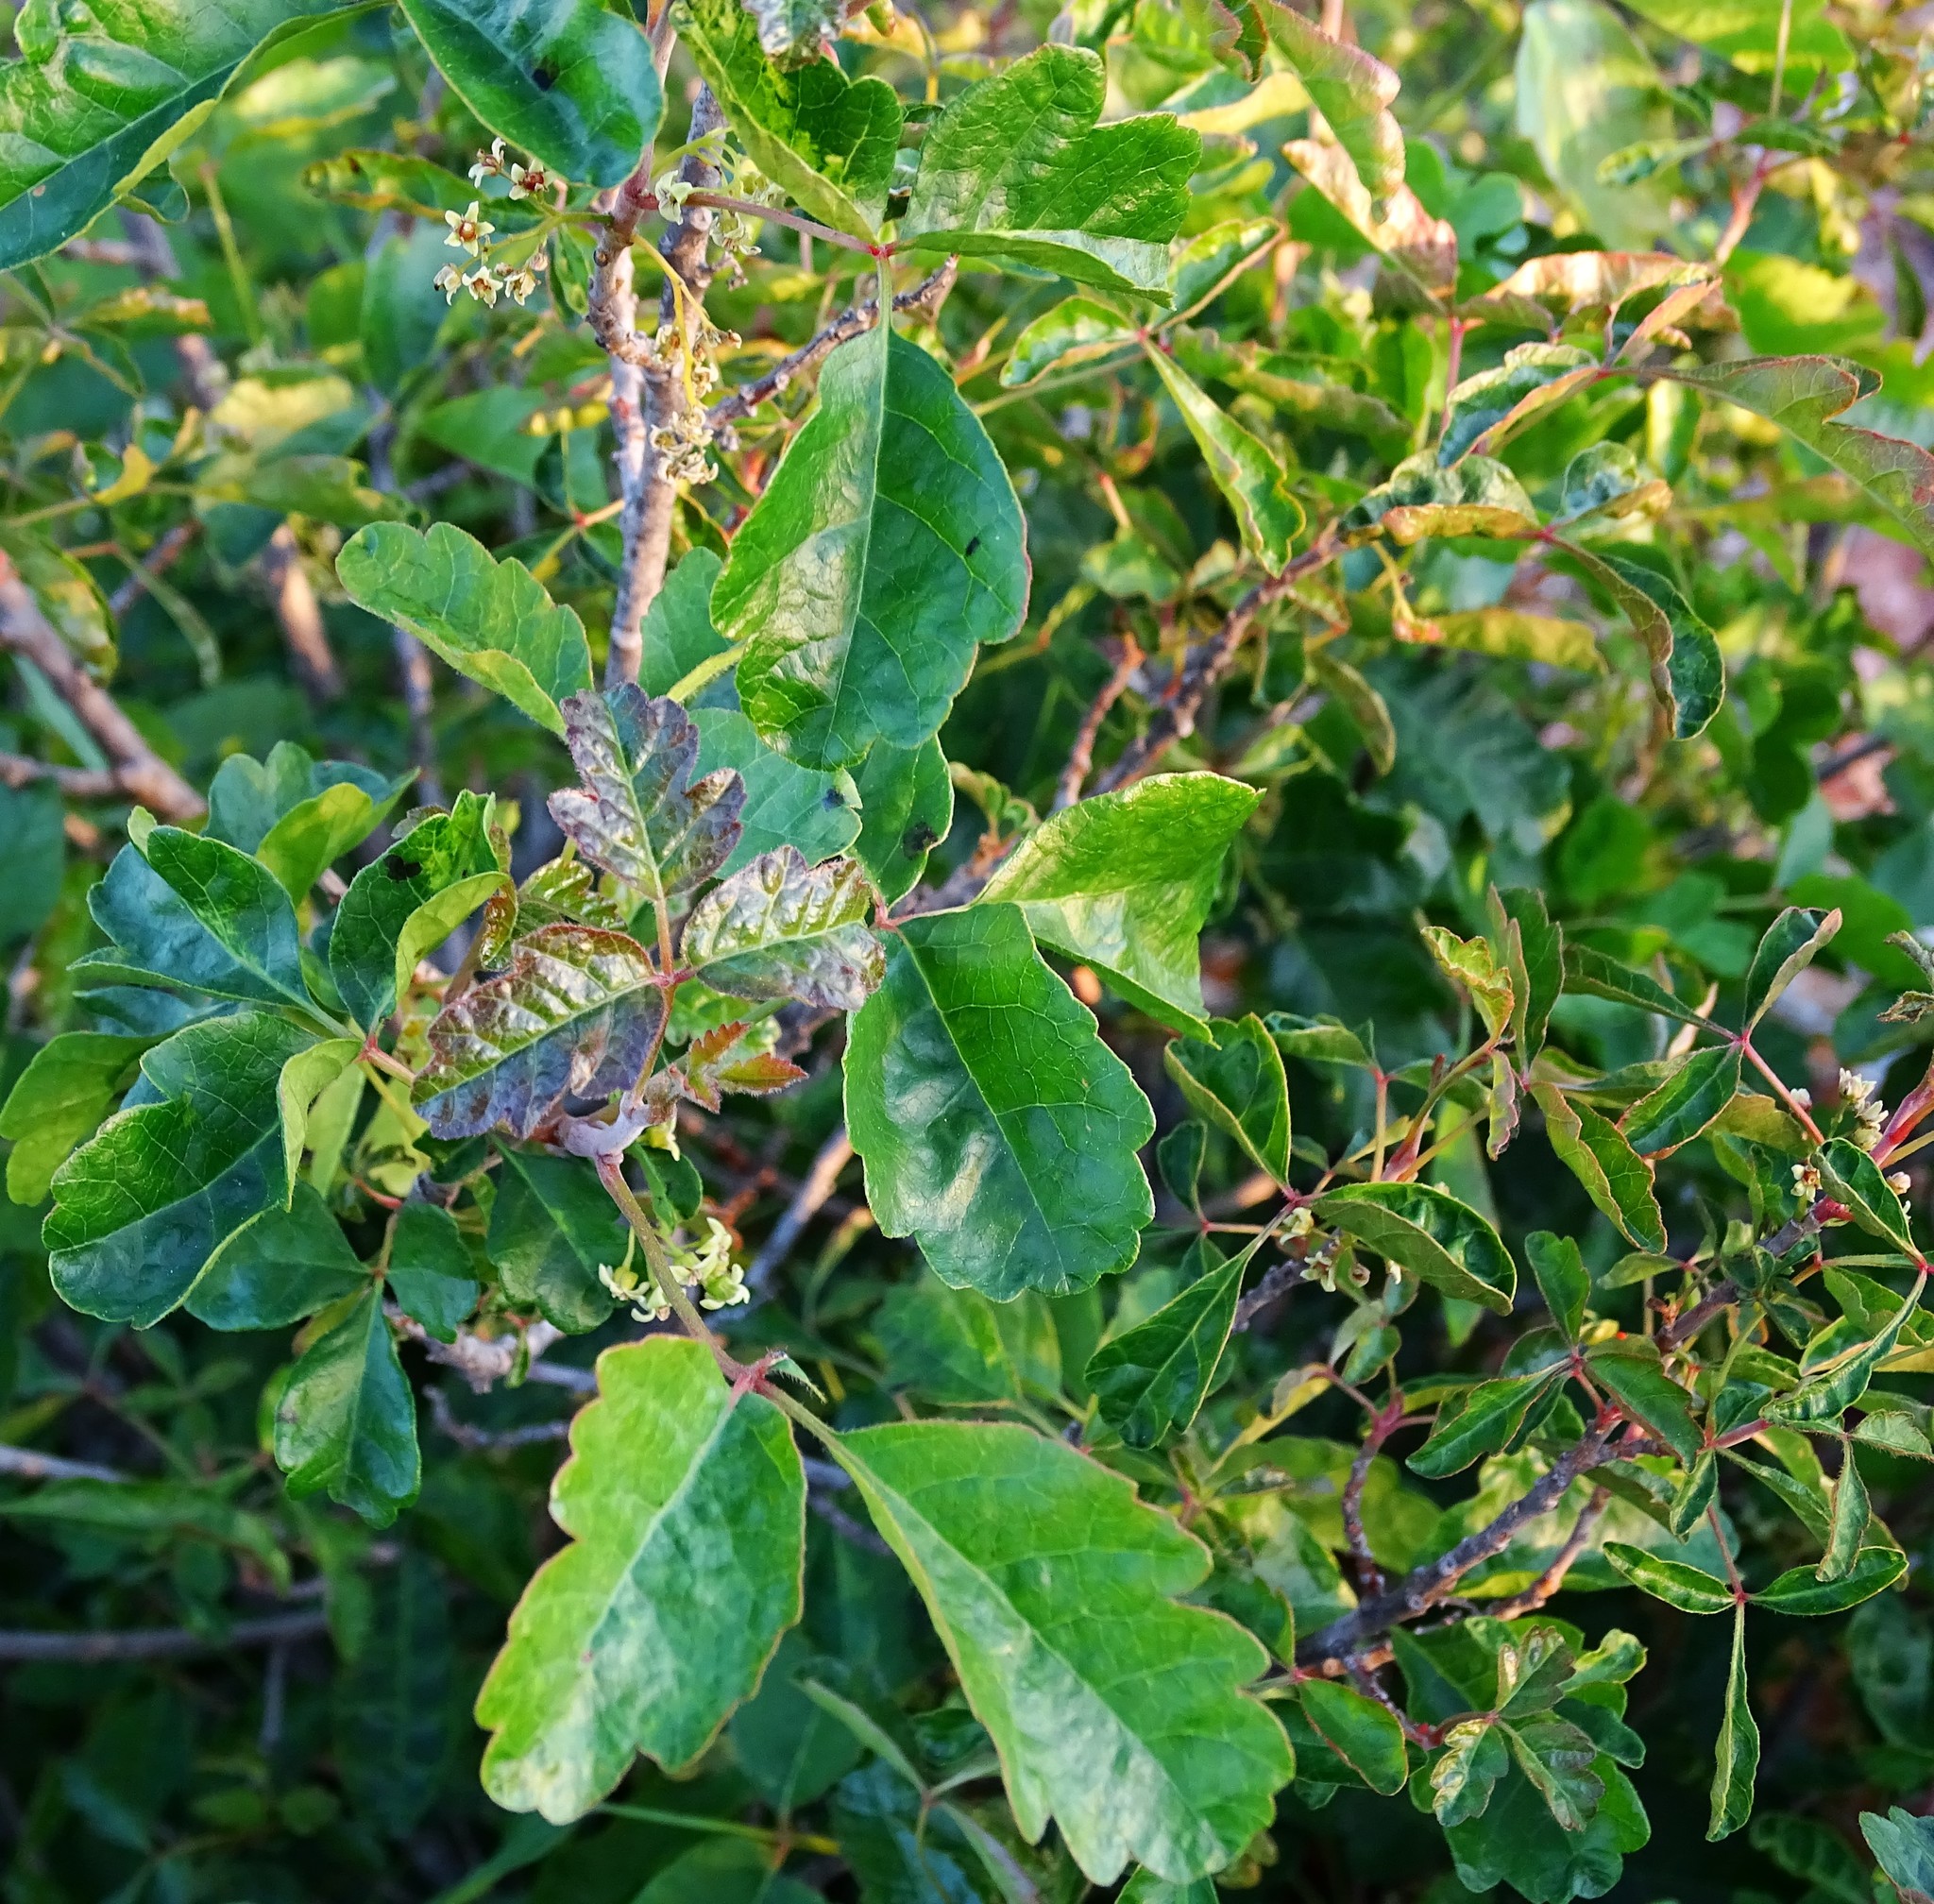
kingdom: Plantae
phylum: Tracheophyta
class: Magnoliopsida
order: Sapindales
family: Anacardiaceae
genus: Toxicodendron
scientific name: Toxicodendron diversilobum
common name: Pacific poison-oak
